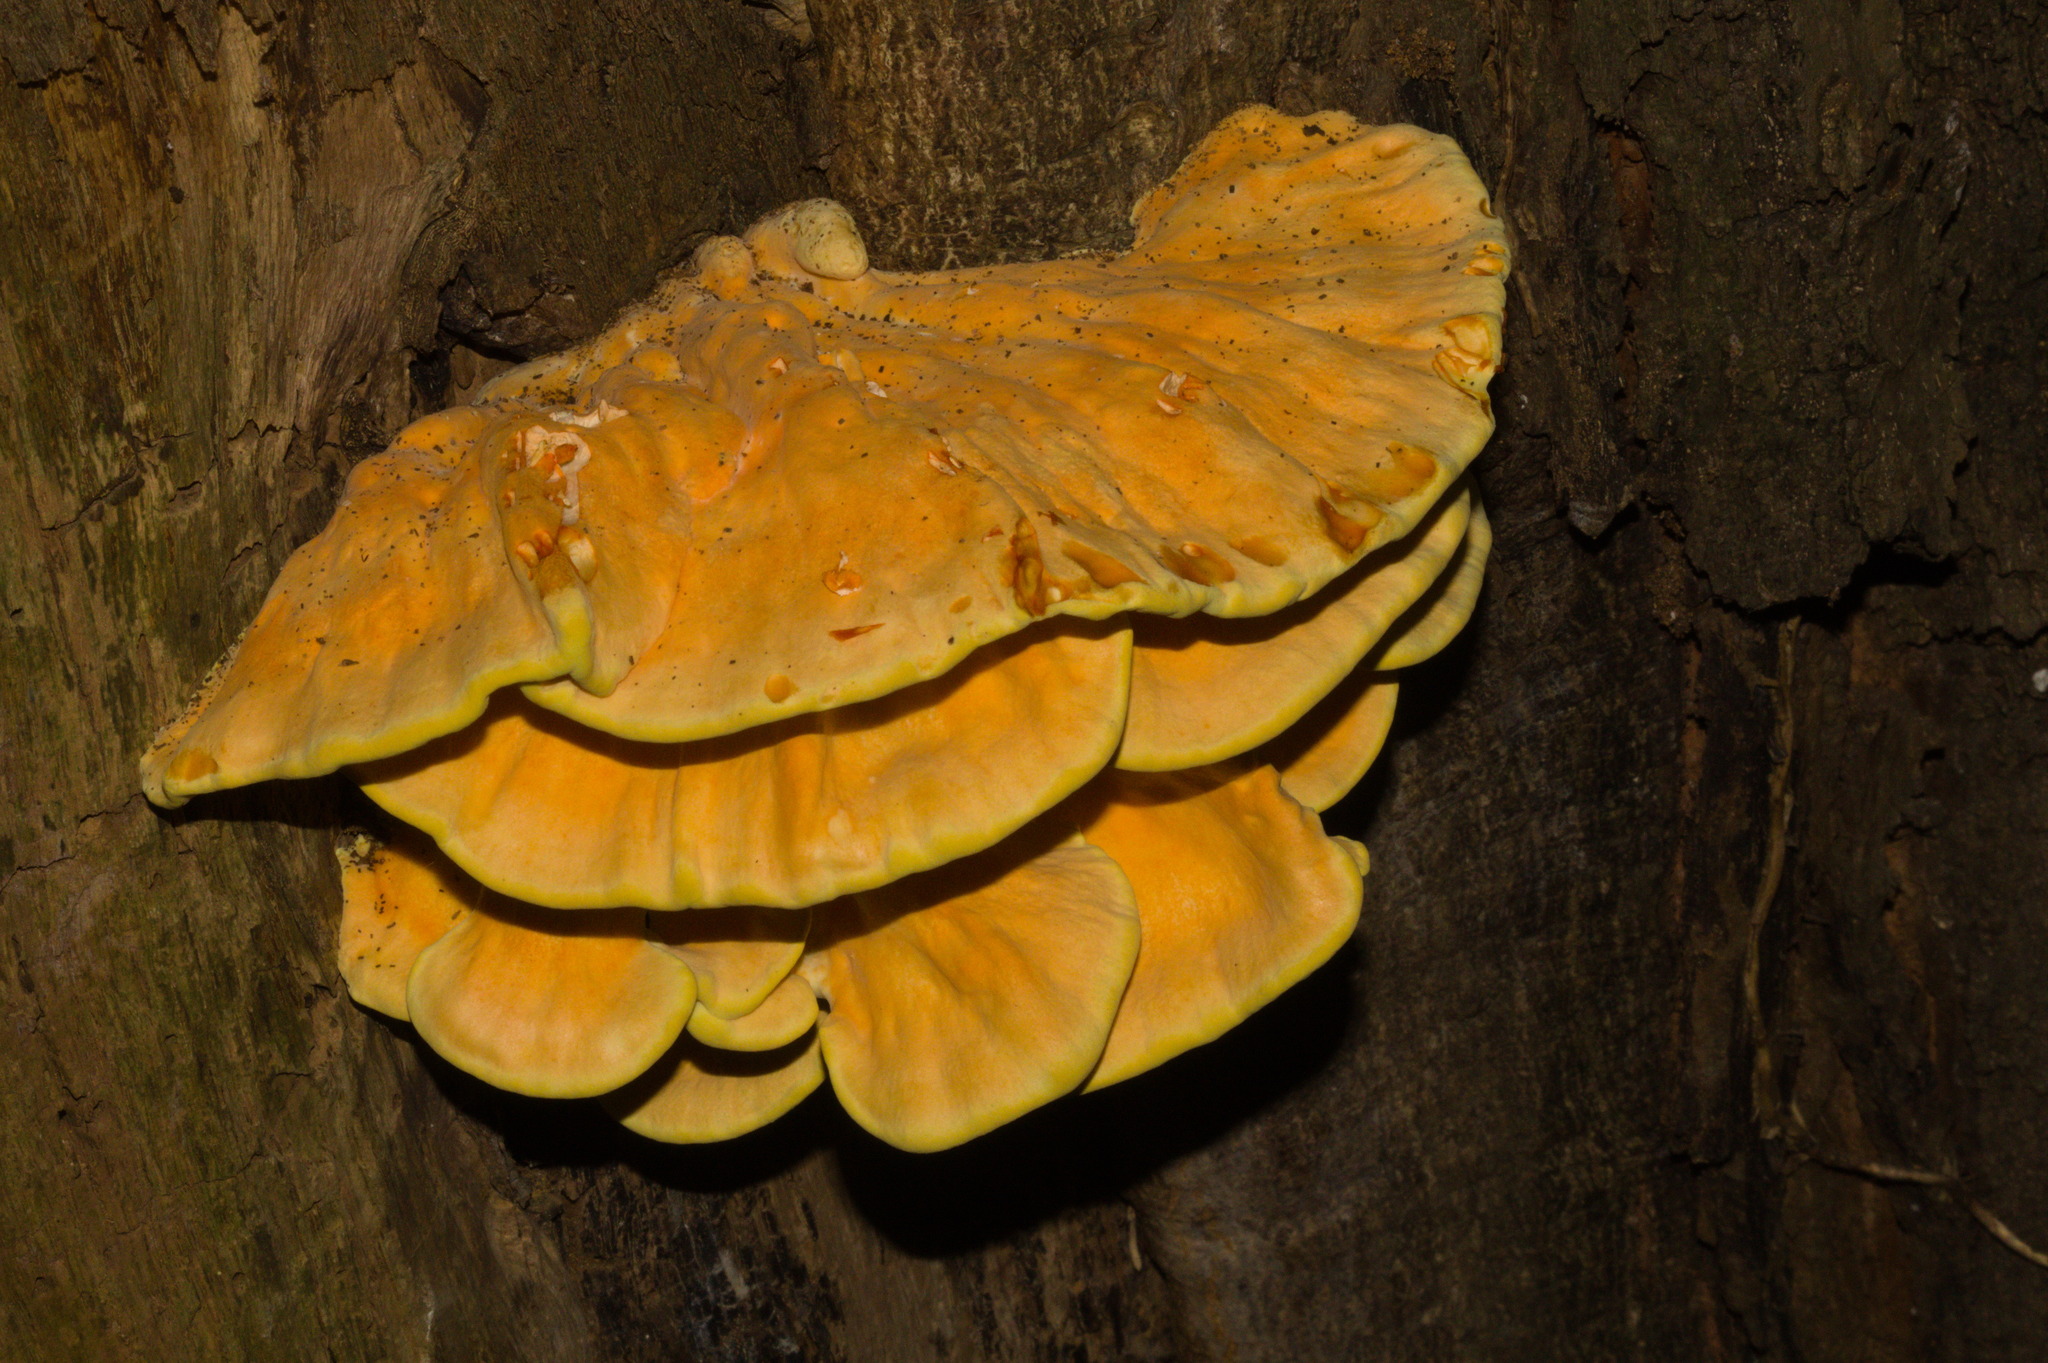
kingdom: Fungi
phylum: Basidiomycota
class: Agaricomycetes
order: Polyporales
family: Laetiporaceae
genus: Laetiporus
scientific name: Laetiporus sulphureus
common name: Chicken of the woods
